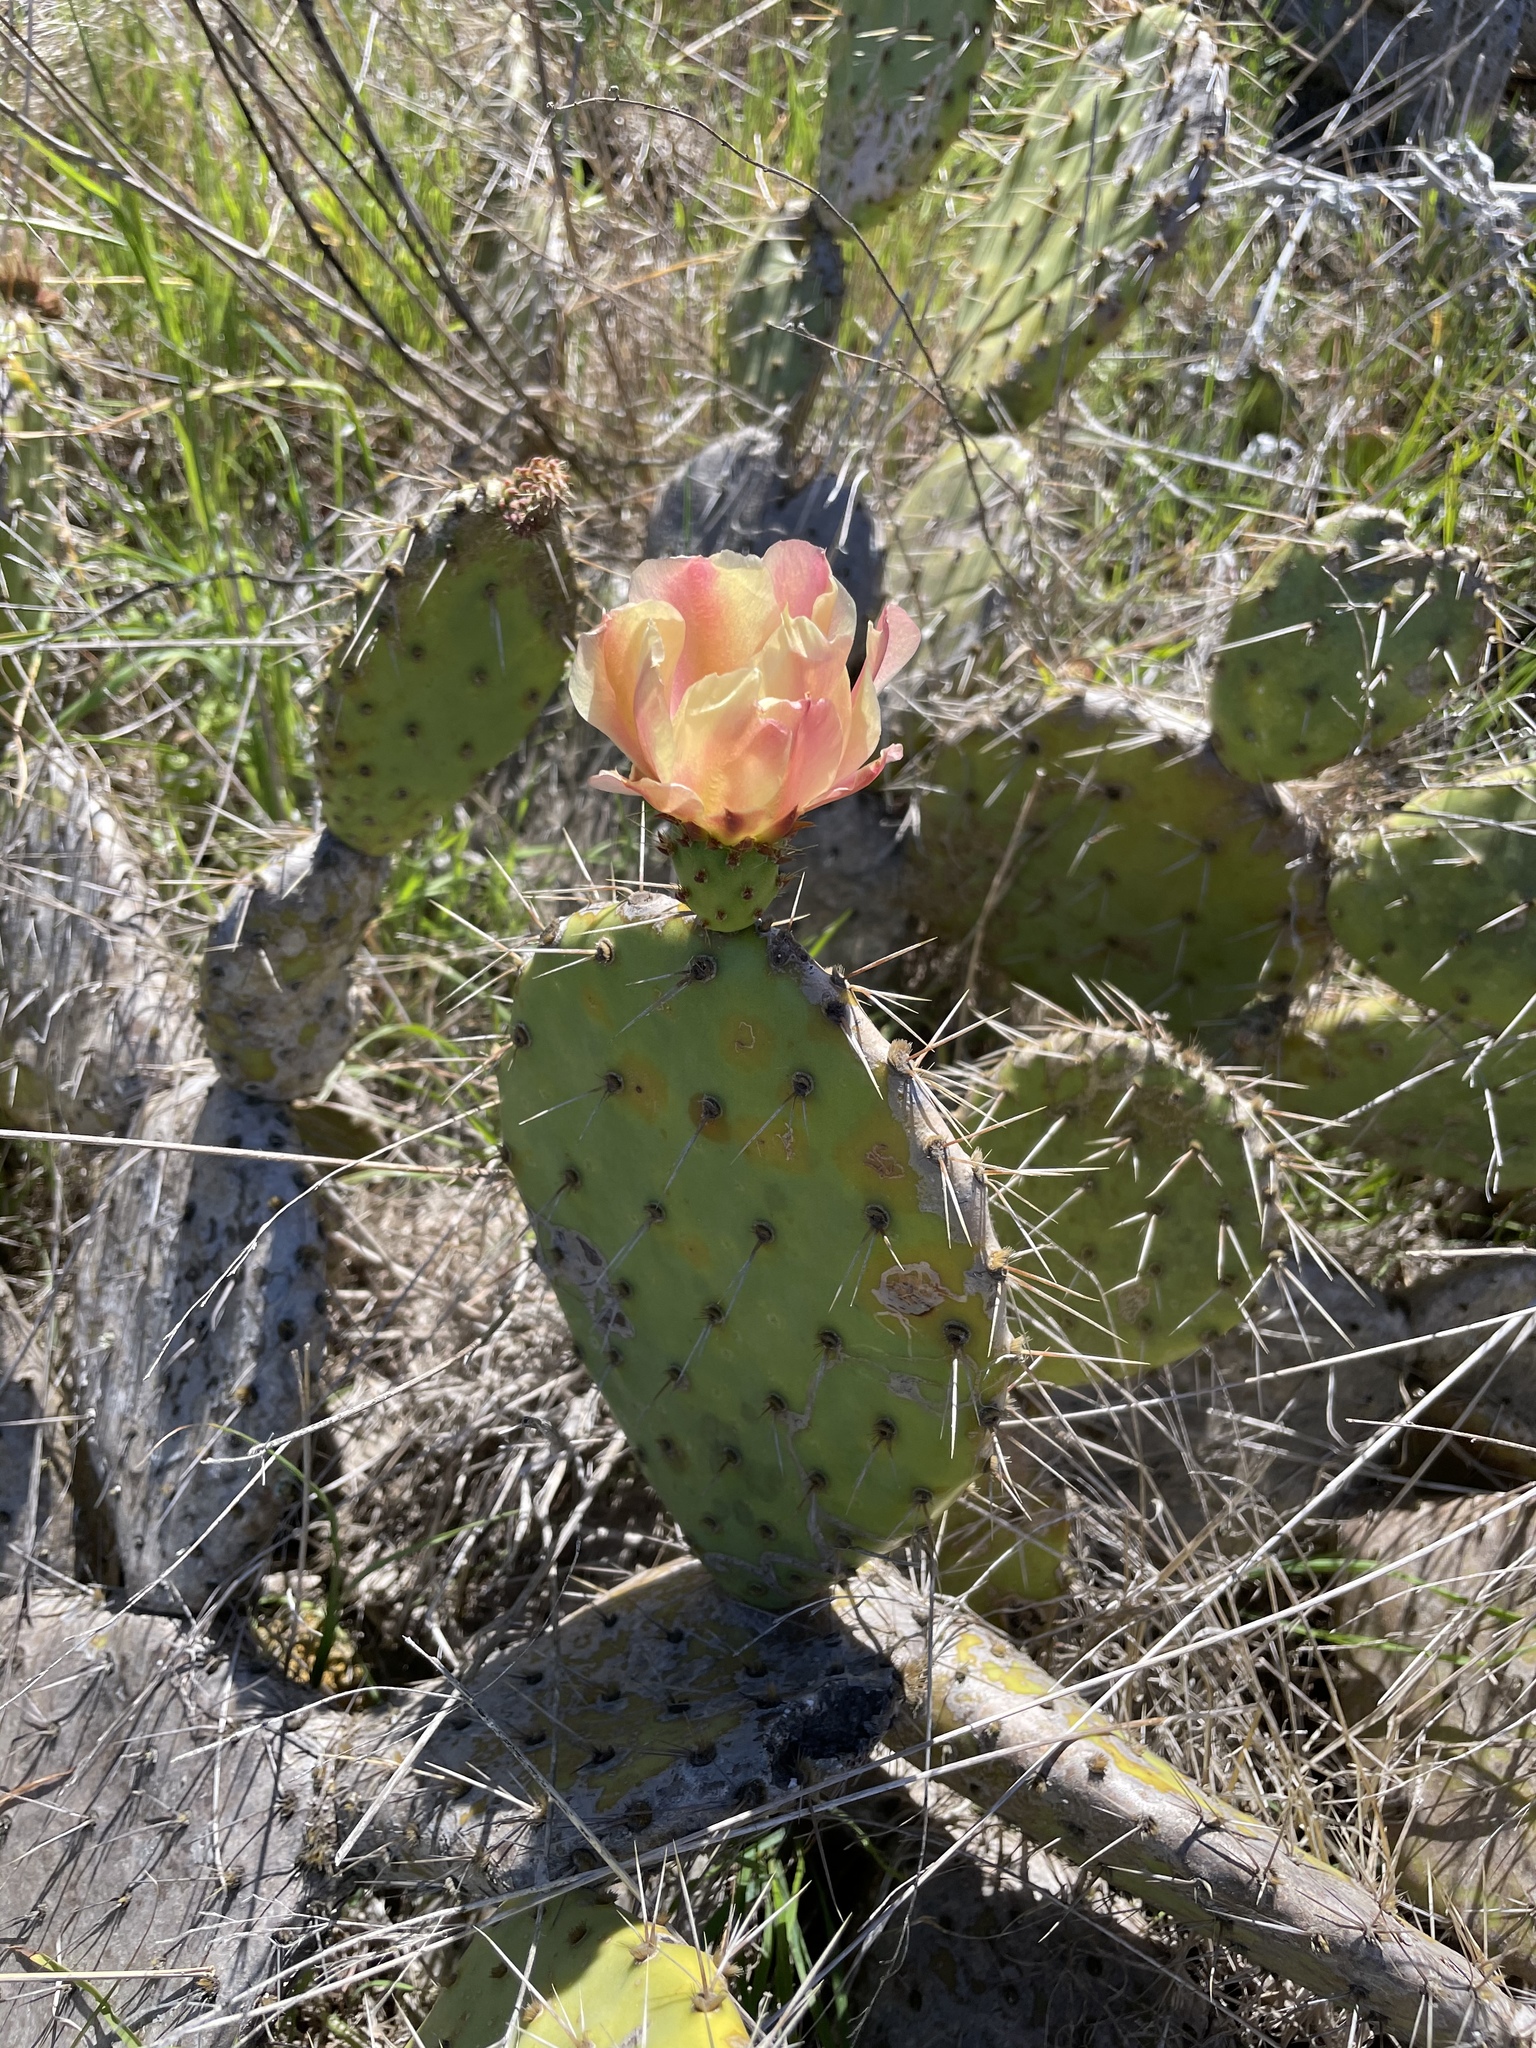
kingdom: Plantae
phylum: Tracheophyta
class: Magnoliopsida
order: Caryophyllales
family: Cactaceae
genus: Opuntia
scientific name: Opuntia littoralis
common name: Coastal prickly-pear
